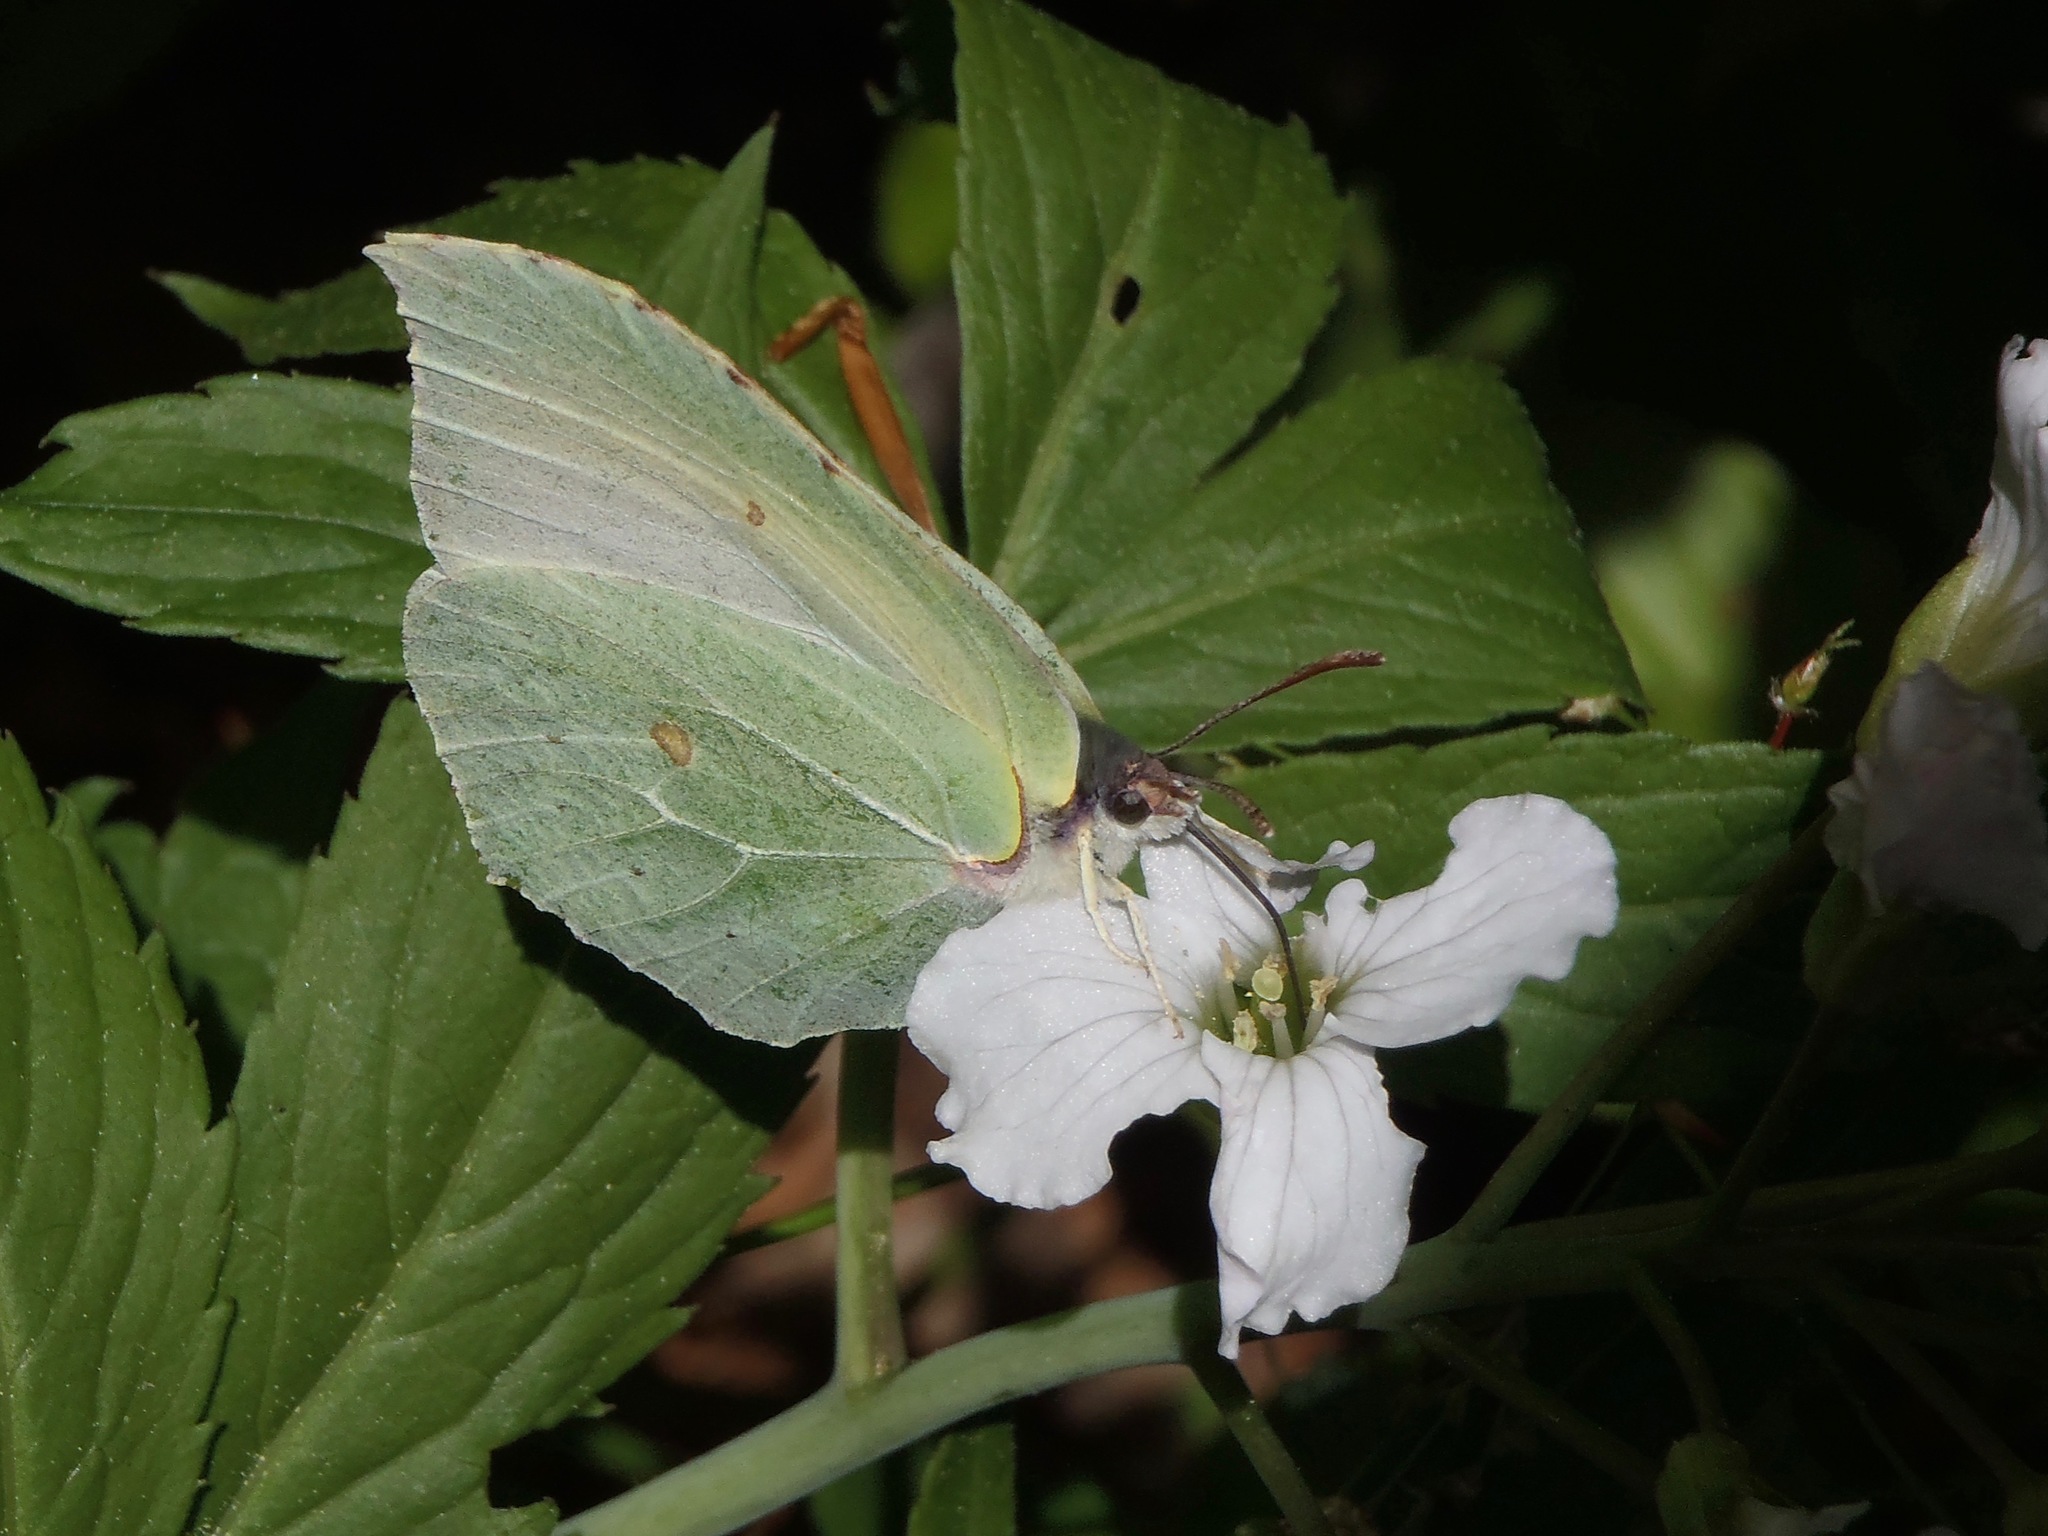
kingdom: Animalia
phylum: Arthropoda
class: Insecta
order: Lepidoptera
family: Pieridae
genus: Gonepteryx
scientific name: Gonepteryx rhamni
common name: Brimstone
